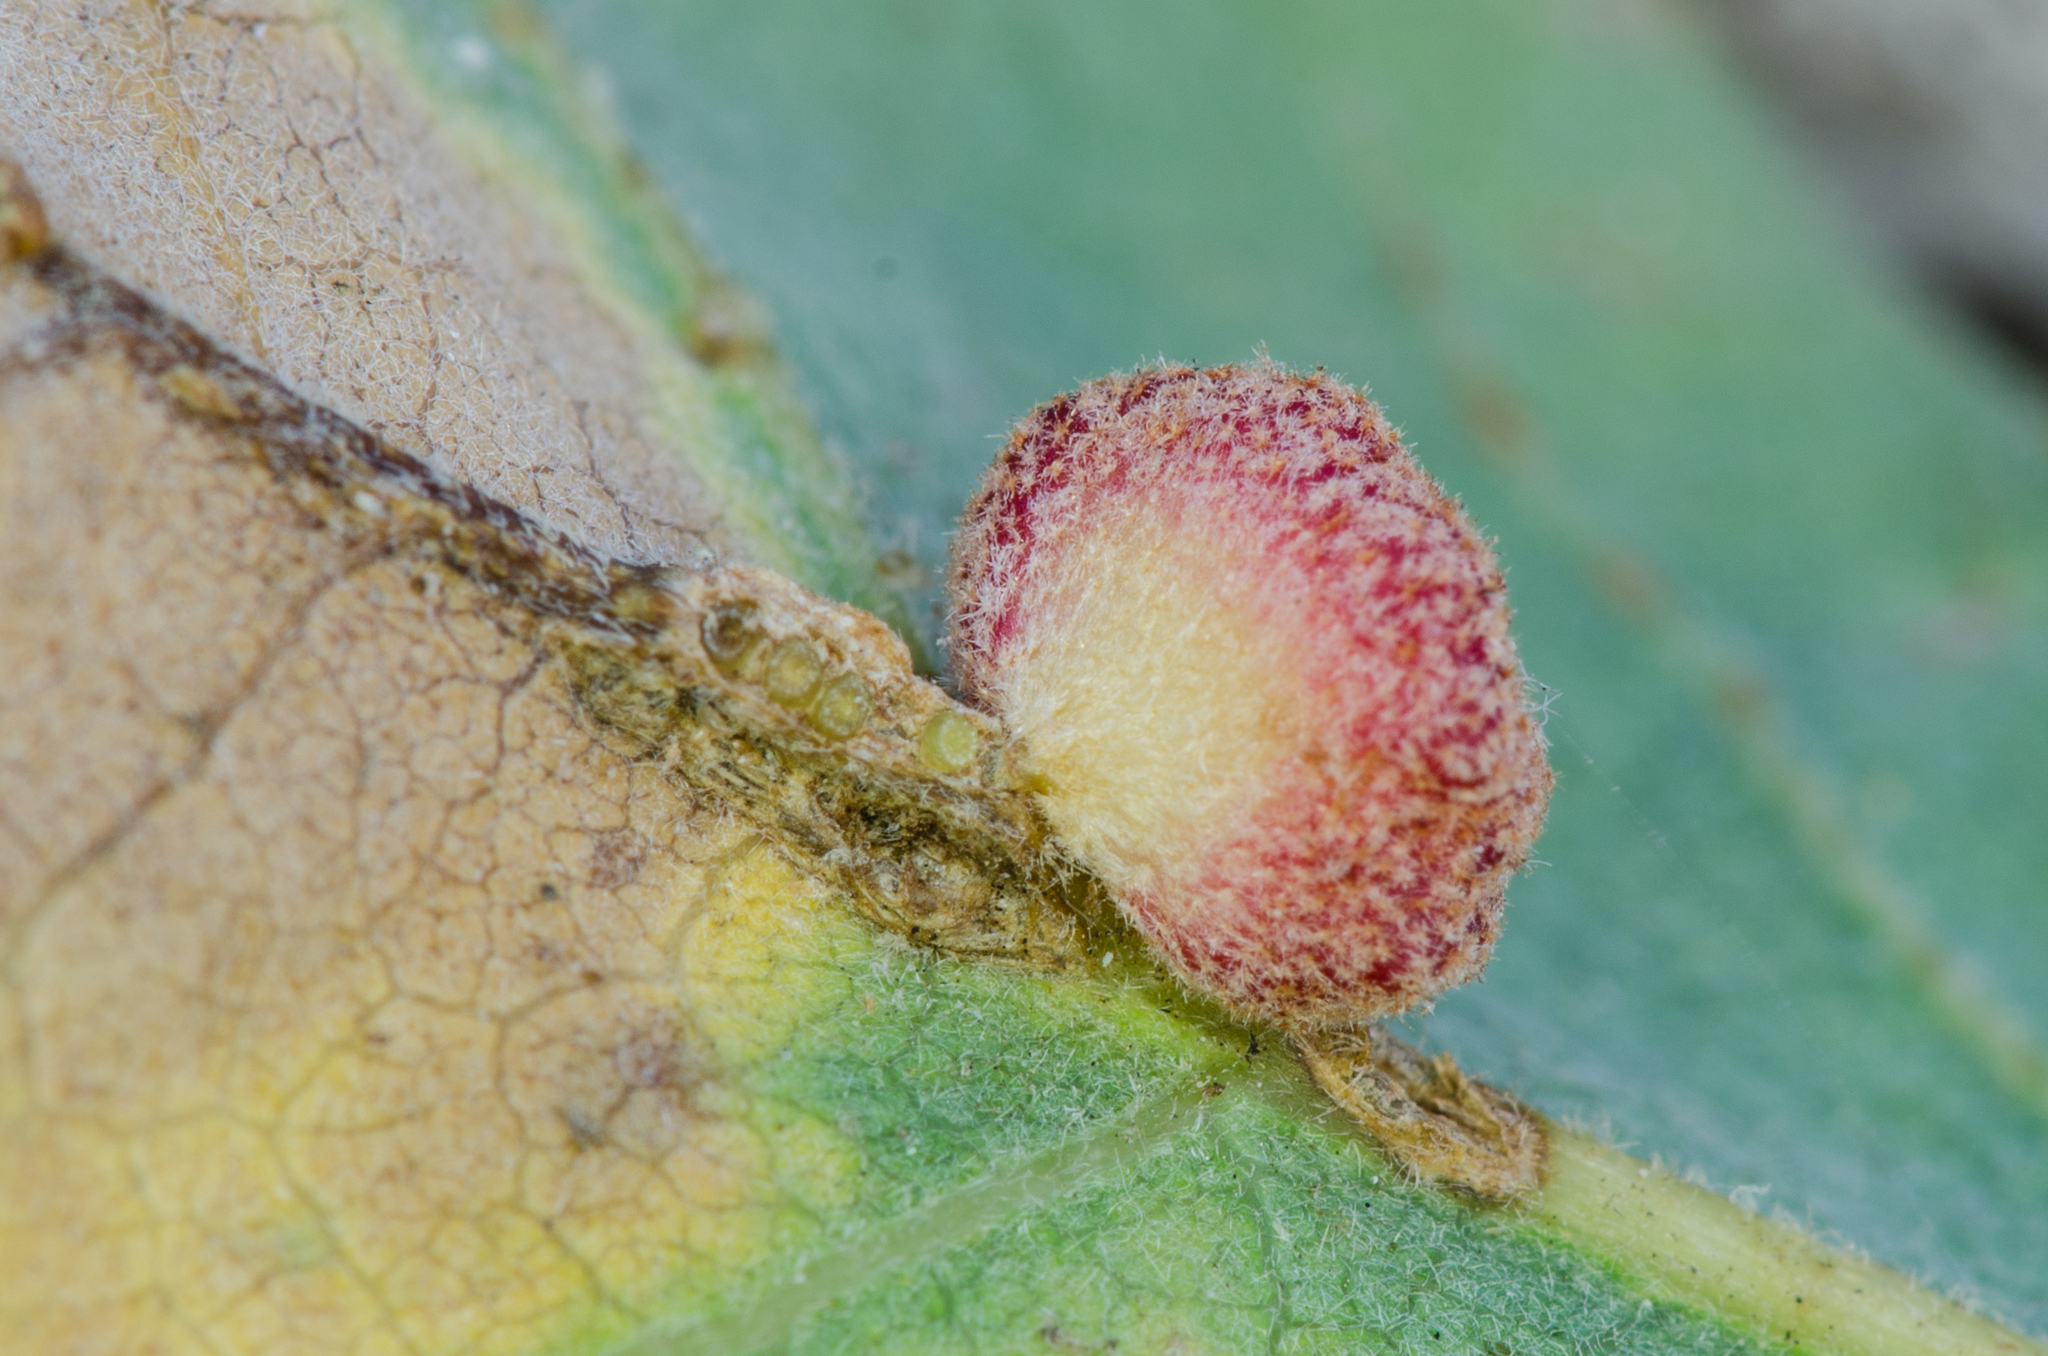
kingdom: Animalia
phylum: Arthropoda
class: Insecta
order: Hymenoptera
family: Cynipidae
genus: Andricus
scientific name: Andricus
